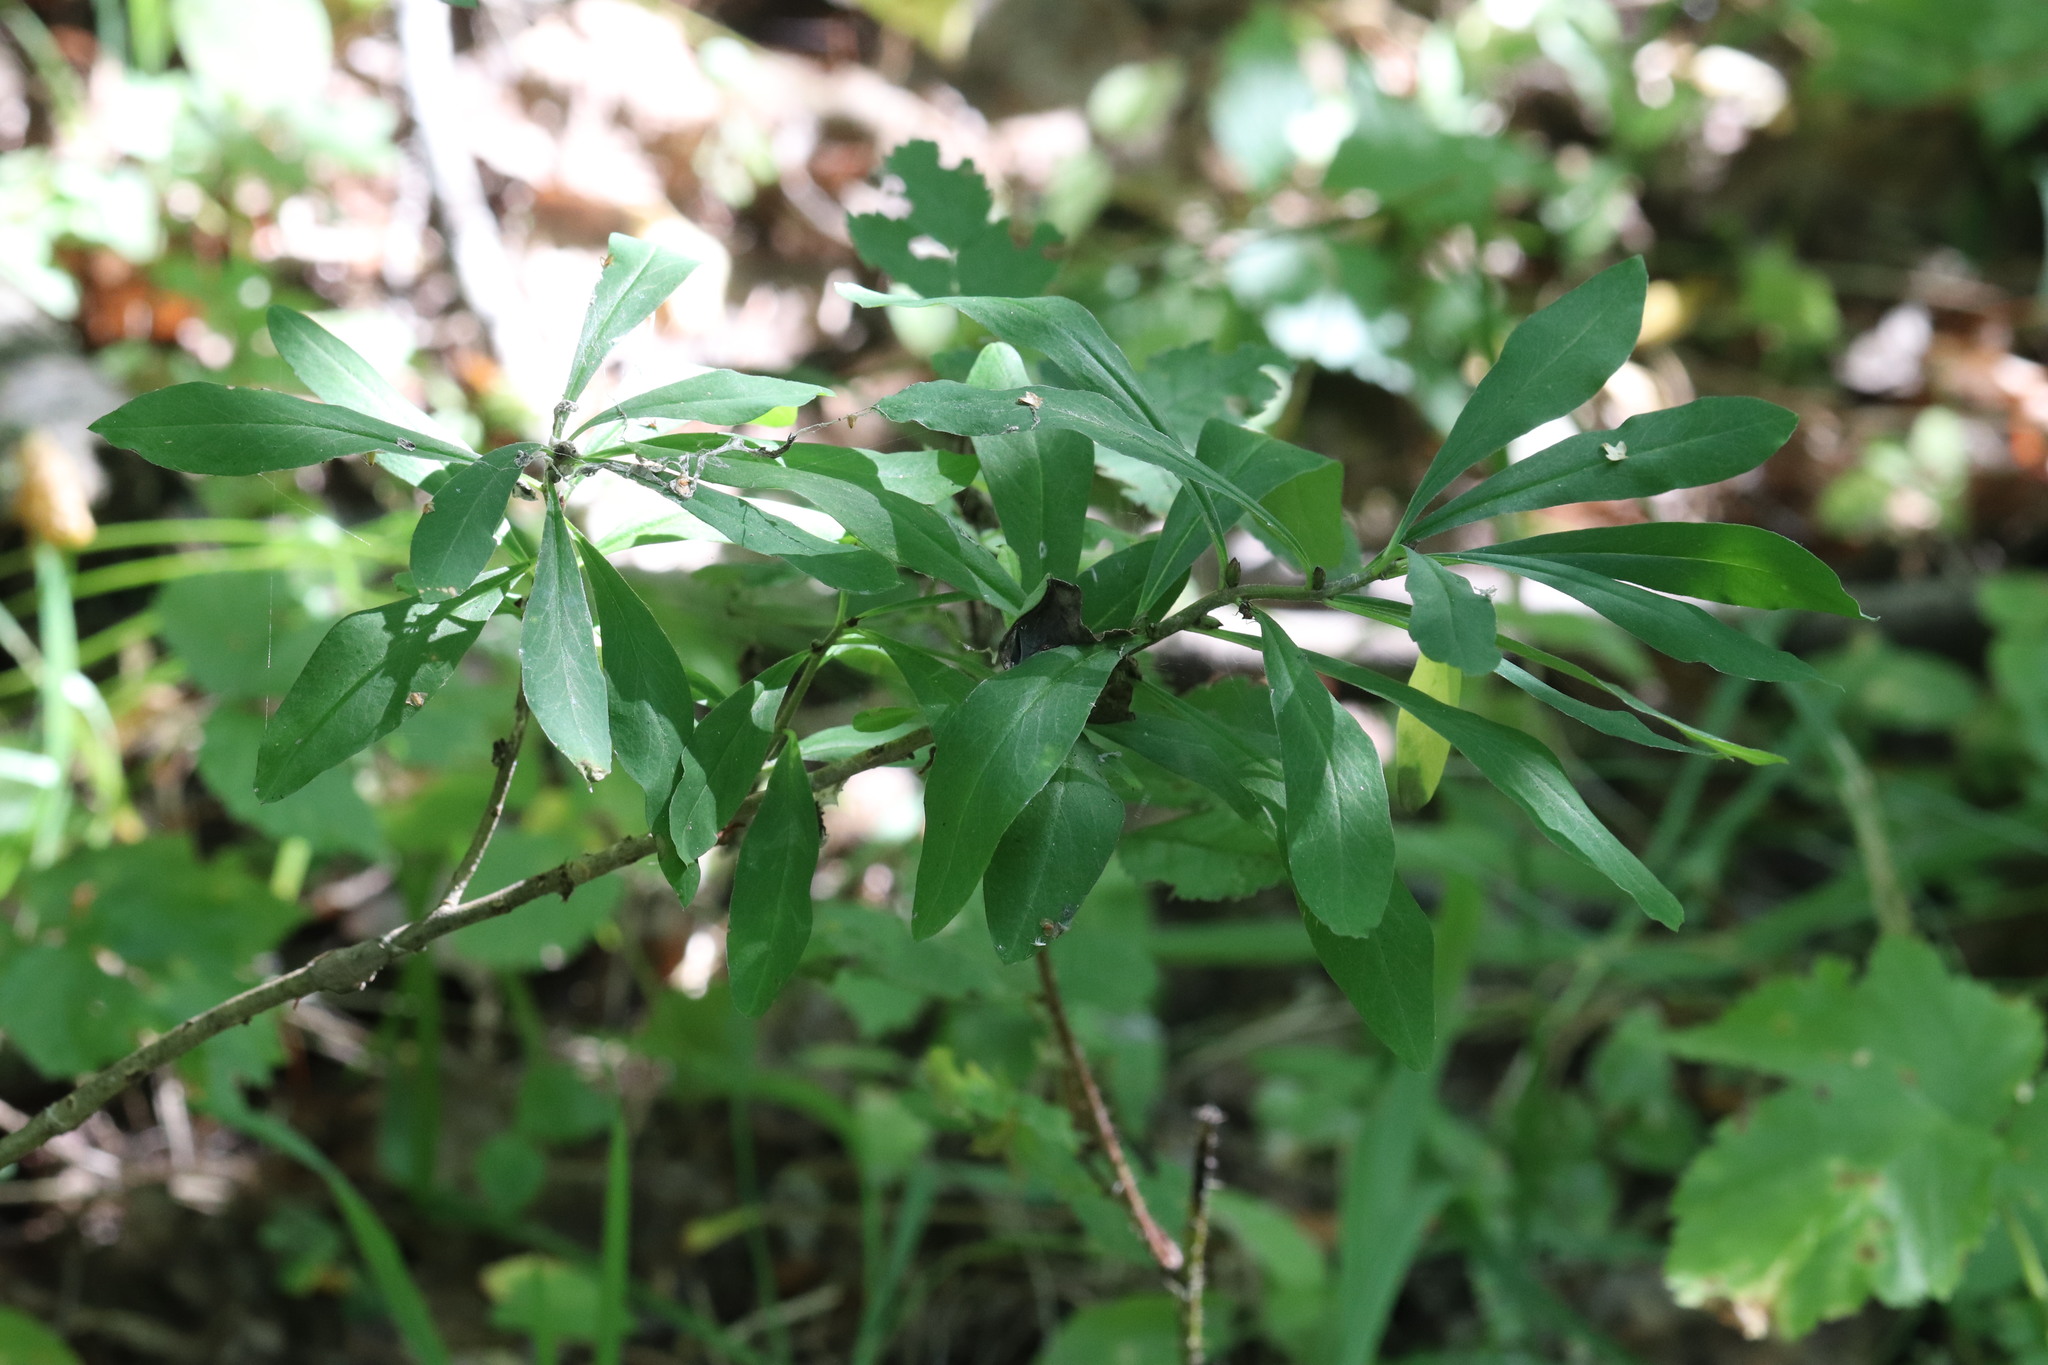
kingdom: Plantae
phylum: Tracheophyta
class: Magnoliopsida
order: Malvales
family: Thymelaeaceae
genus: Daphne
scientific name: Daphne mezereum
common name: Mezereon
